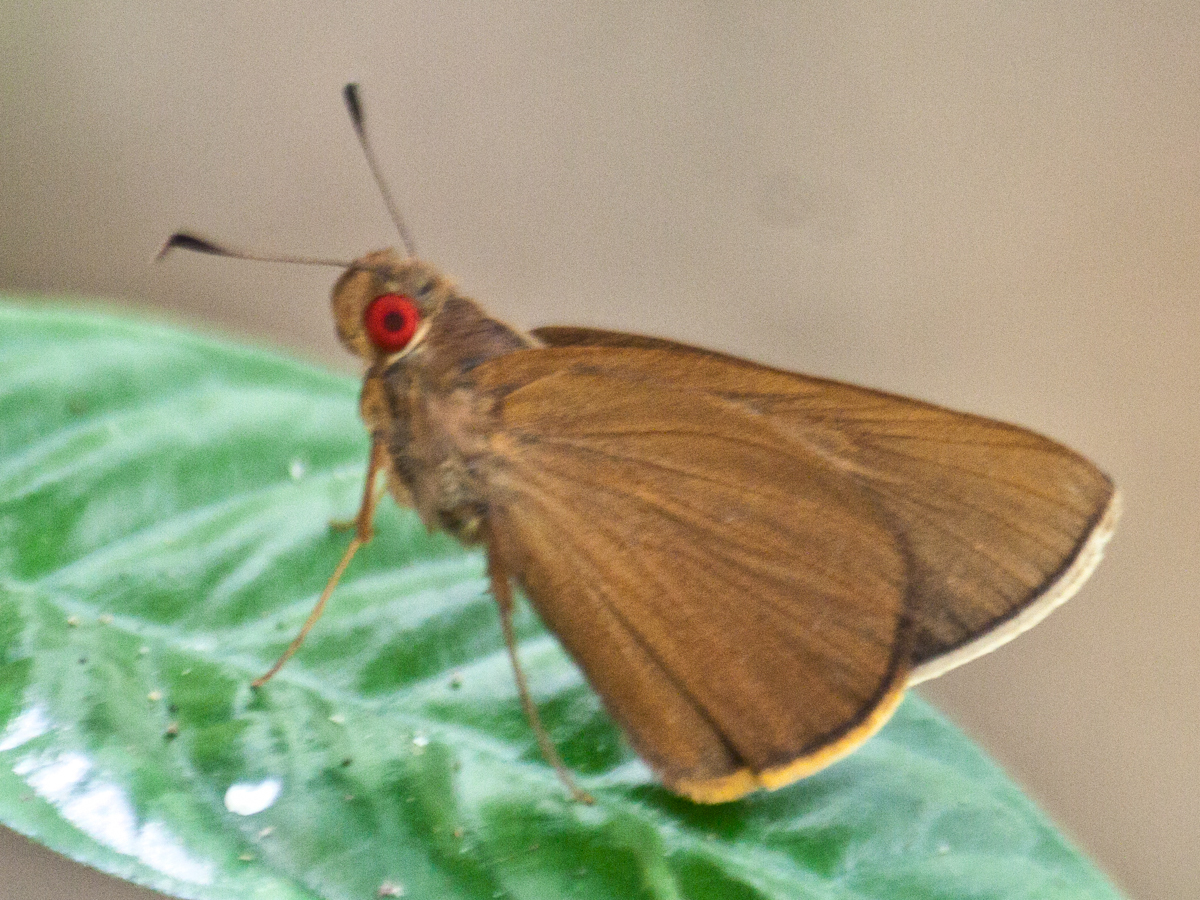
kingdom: Animalia
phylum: Arthropoda
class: Insecta
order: Lepidoptera
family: Hesperiidae
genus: Matapa
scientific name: Matapa druna
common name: Grey-brand redeye
